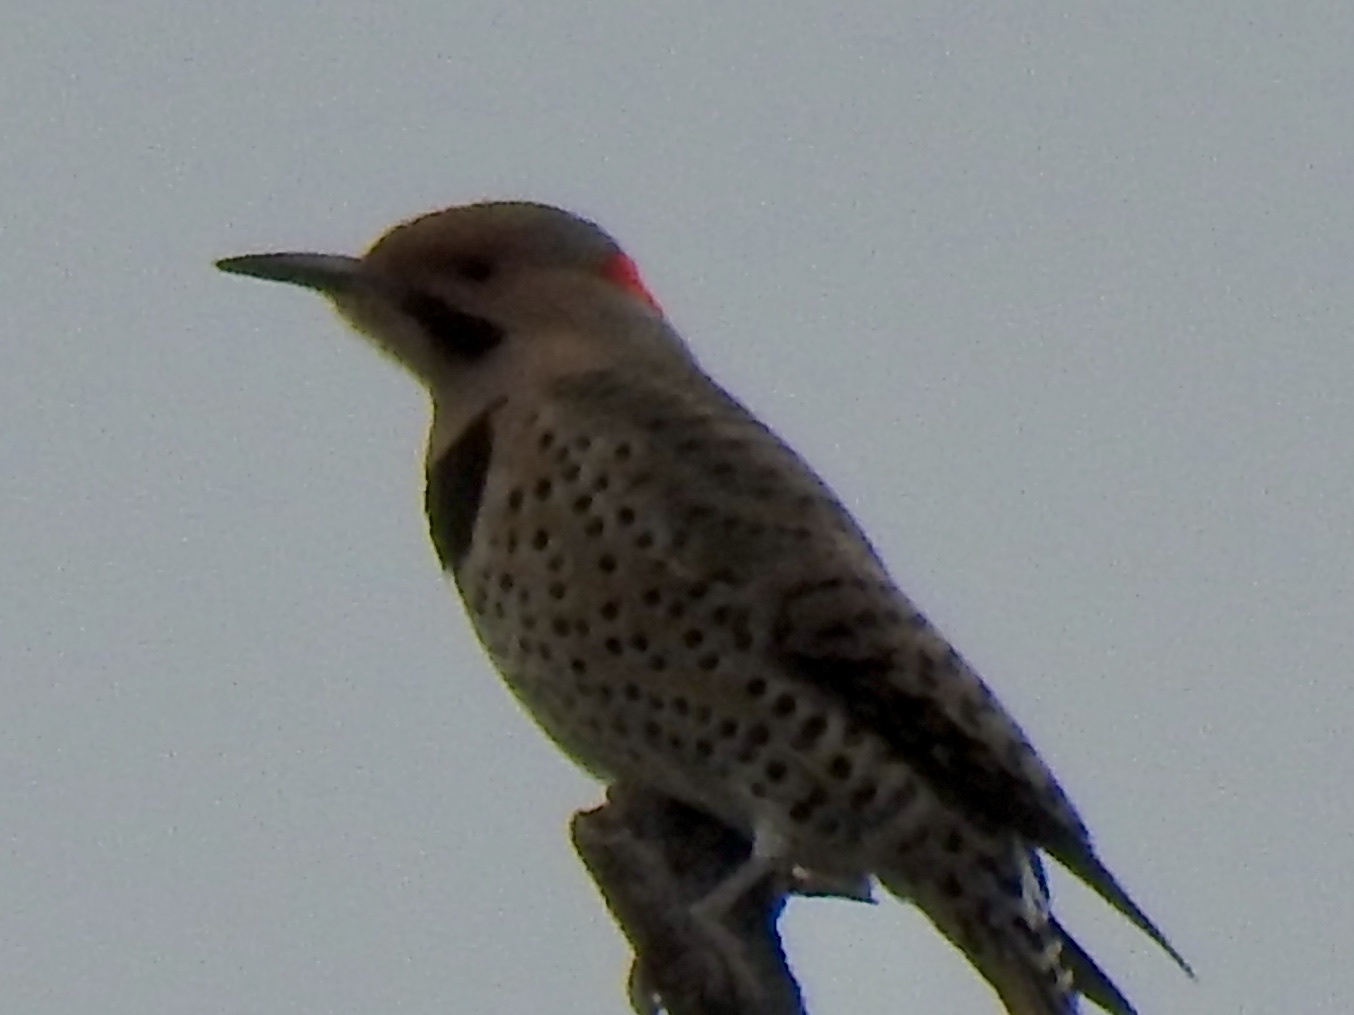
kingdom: Animalia
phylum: Chordata
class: Aves
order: Piciformes
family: Picidae
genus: Colaptes
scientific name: Colaptes auratus
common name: Northern flicker
